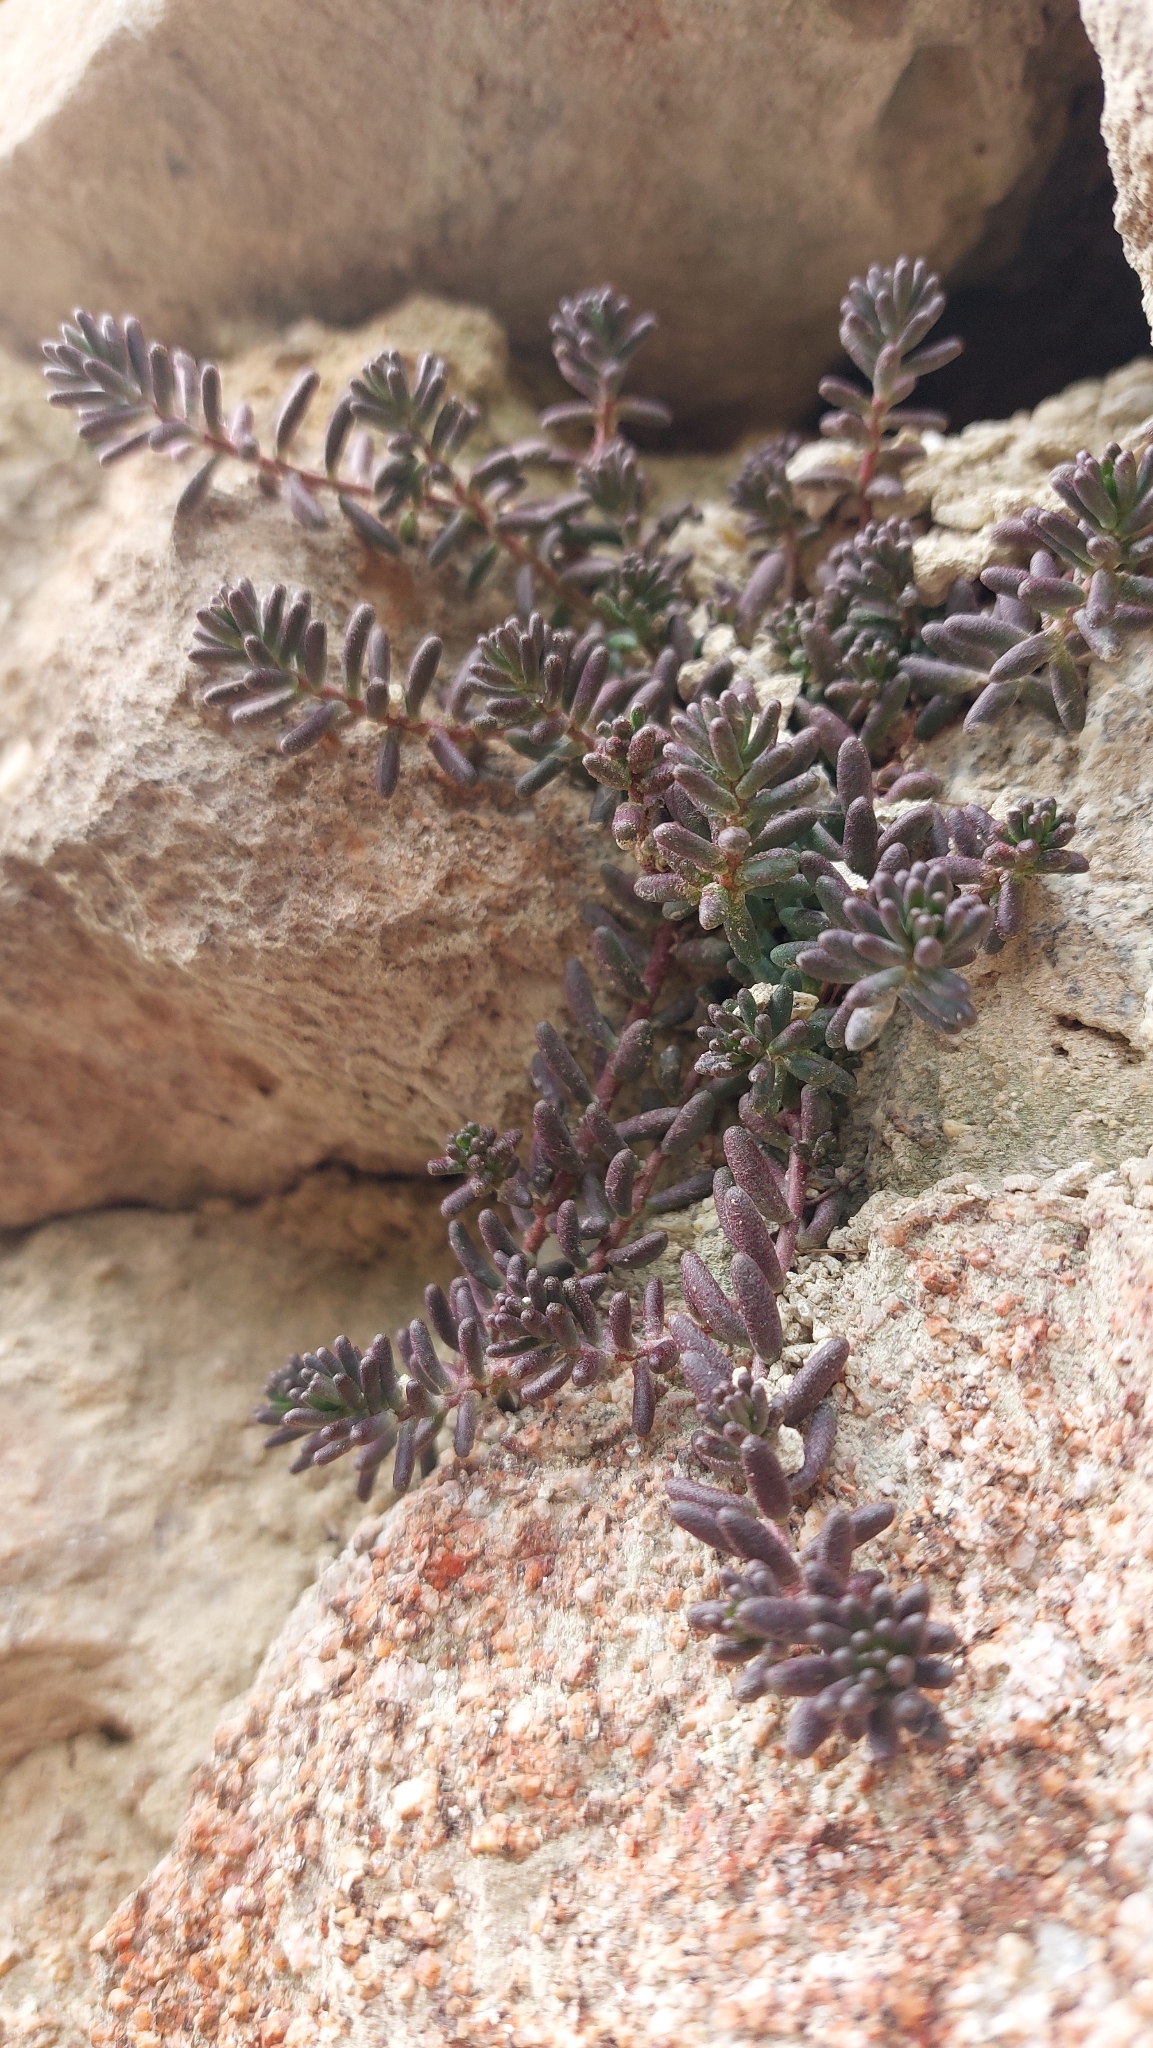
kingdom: Plantae
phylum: Tracheophyta
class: Magnoliopsida
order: Saxifragales
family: Crassulaceae
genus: Sedum
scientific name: Sedum album
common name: White stonecrop
